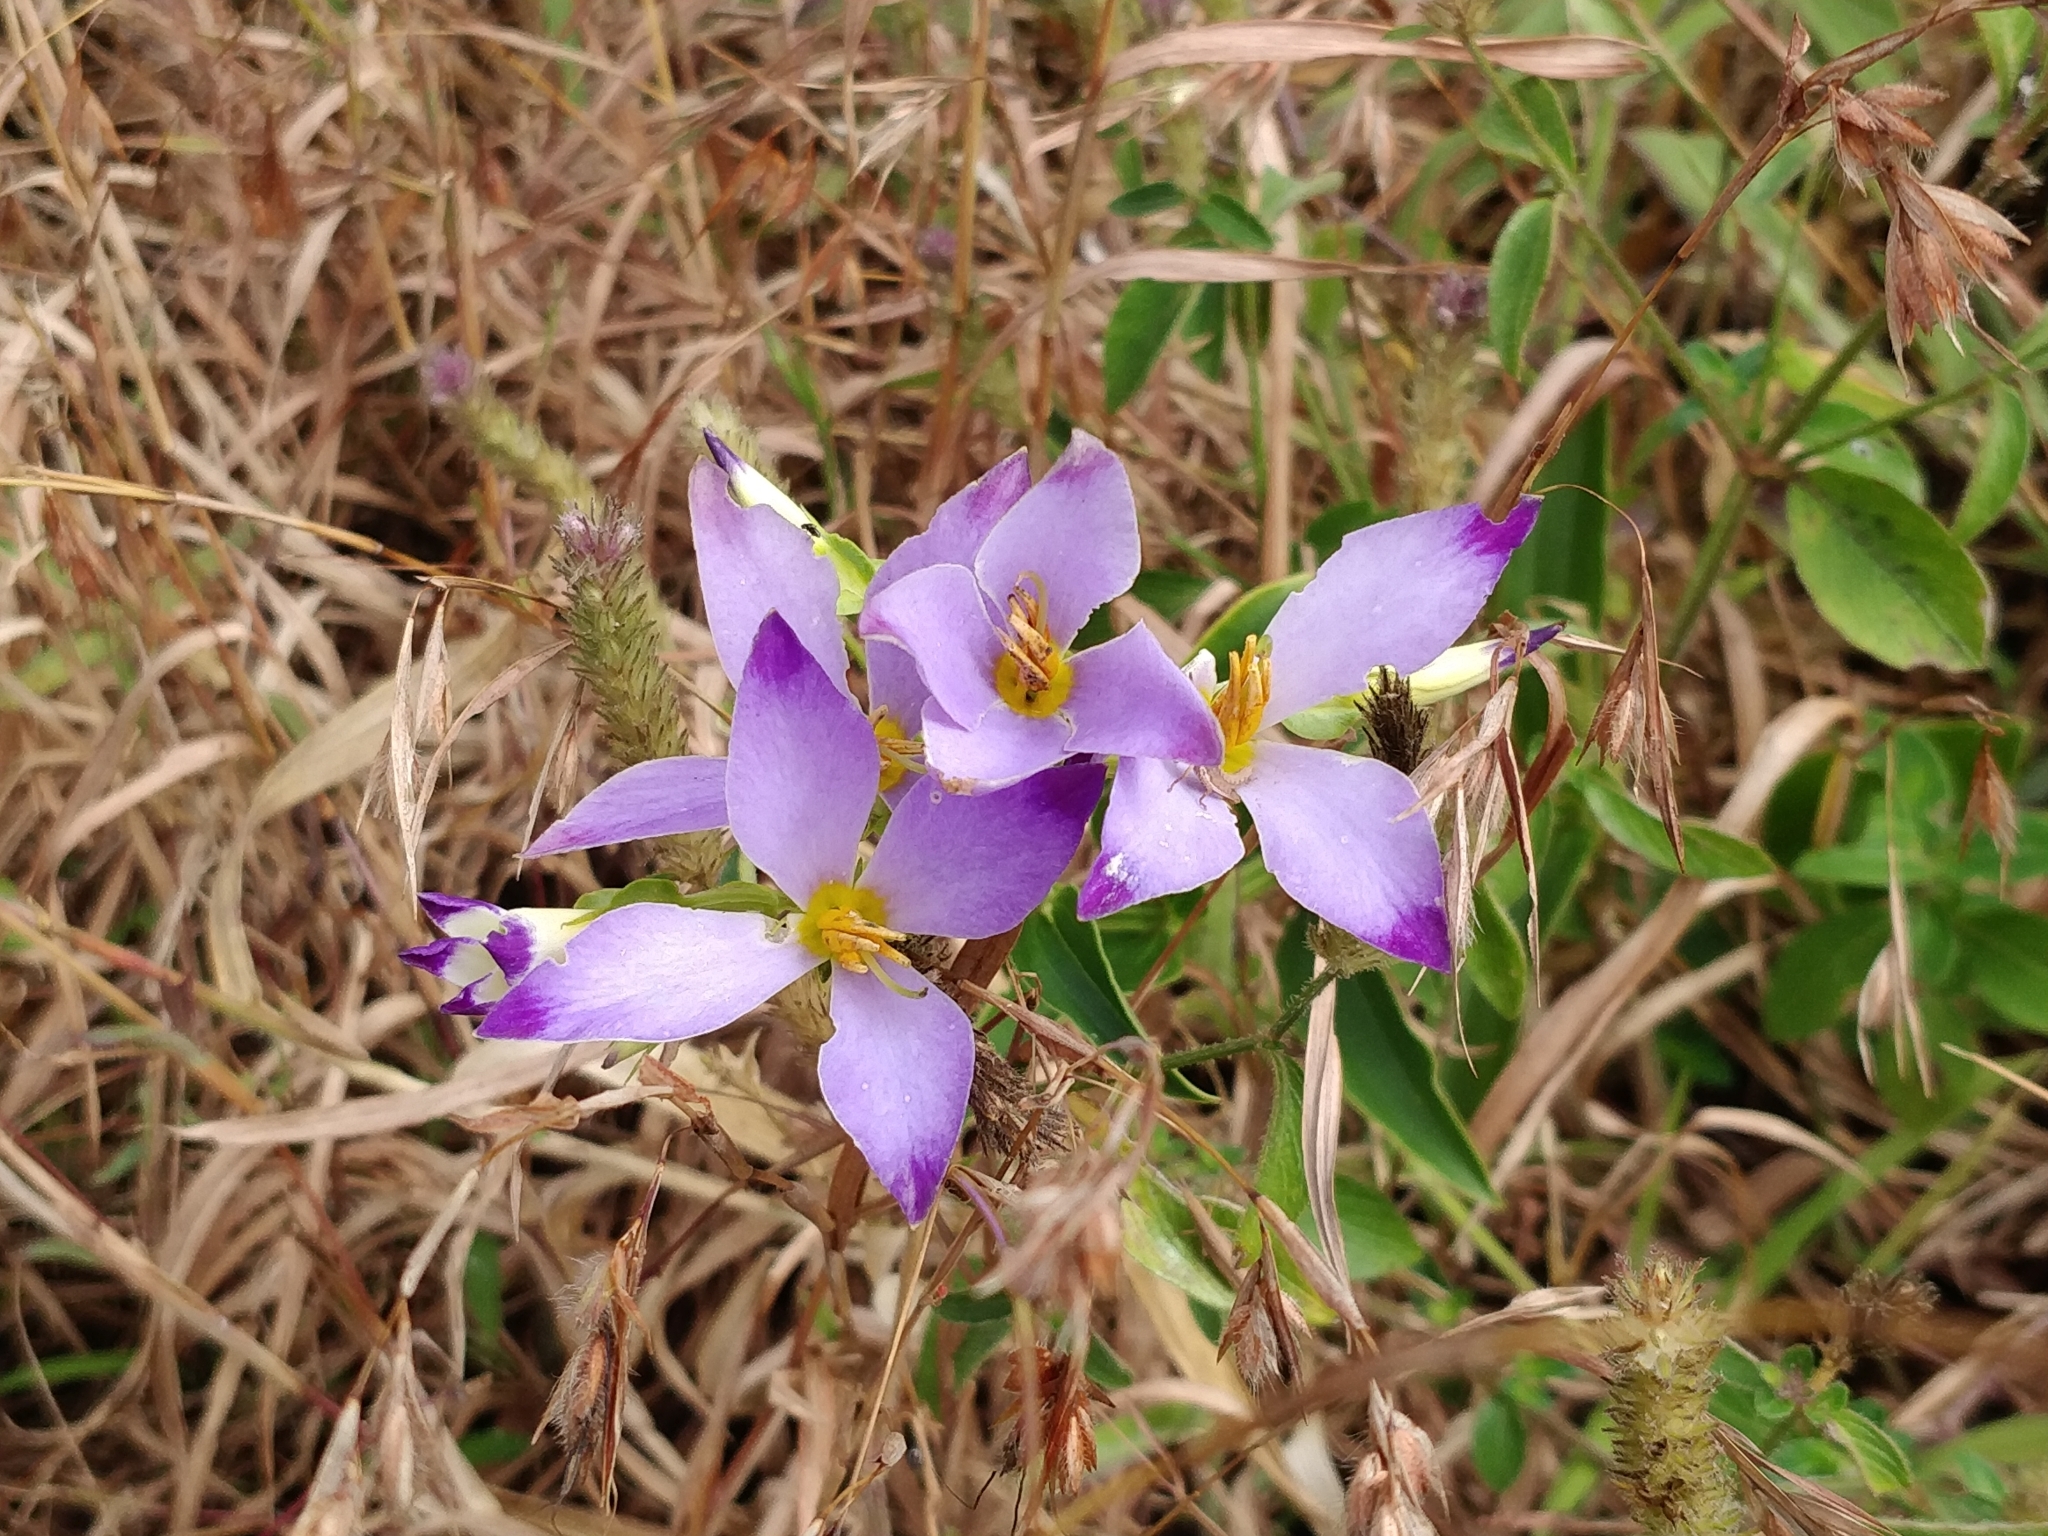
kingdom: Plantae
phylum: Tracheophyta
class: Magnoliopsida
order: Gentianales
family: Gentianaceae
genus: Exacum
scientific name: Exacum tetragonum
